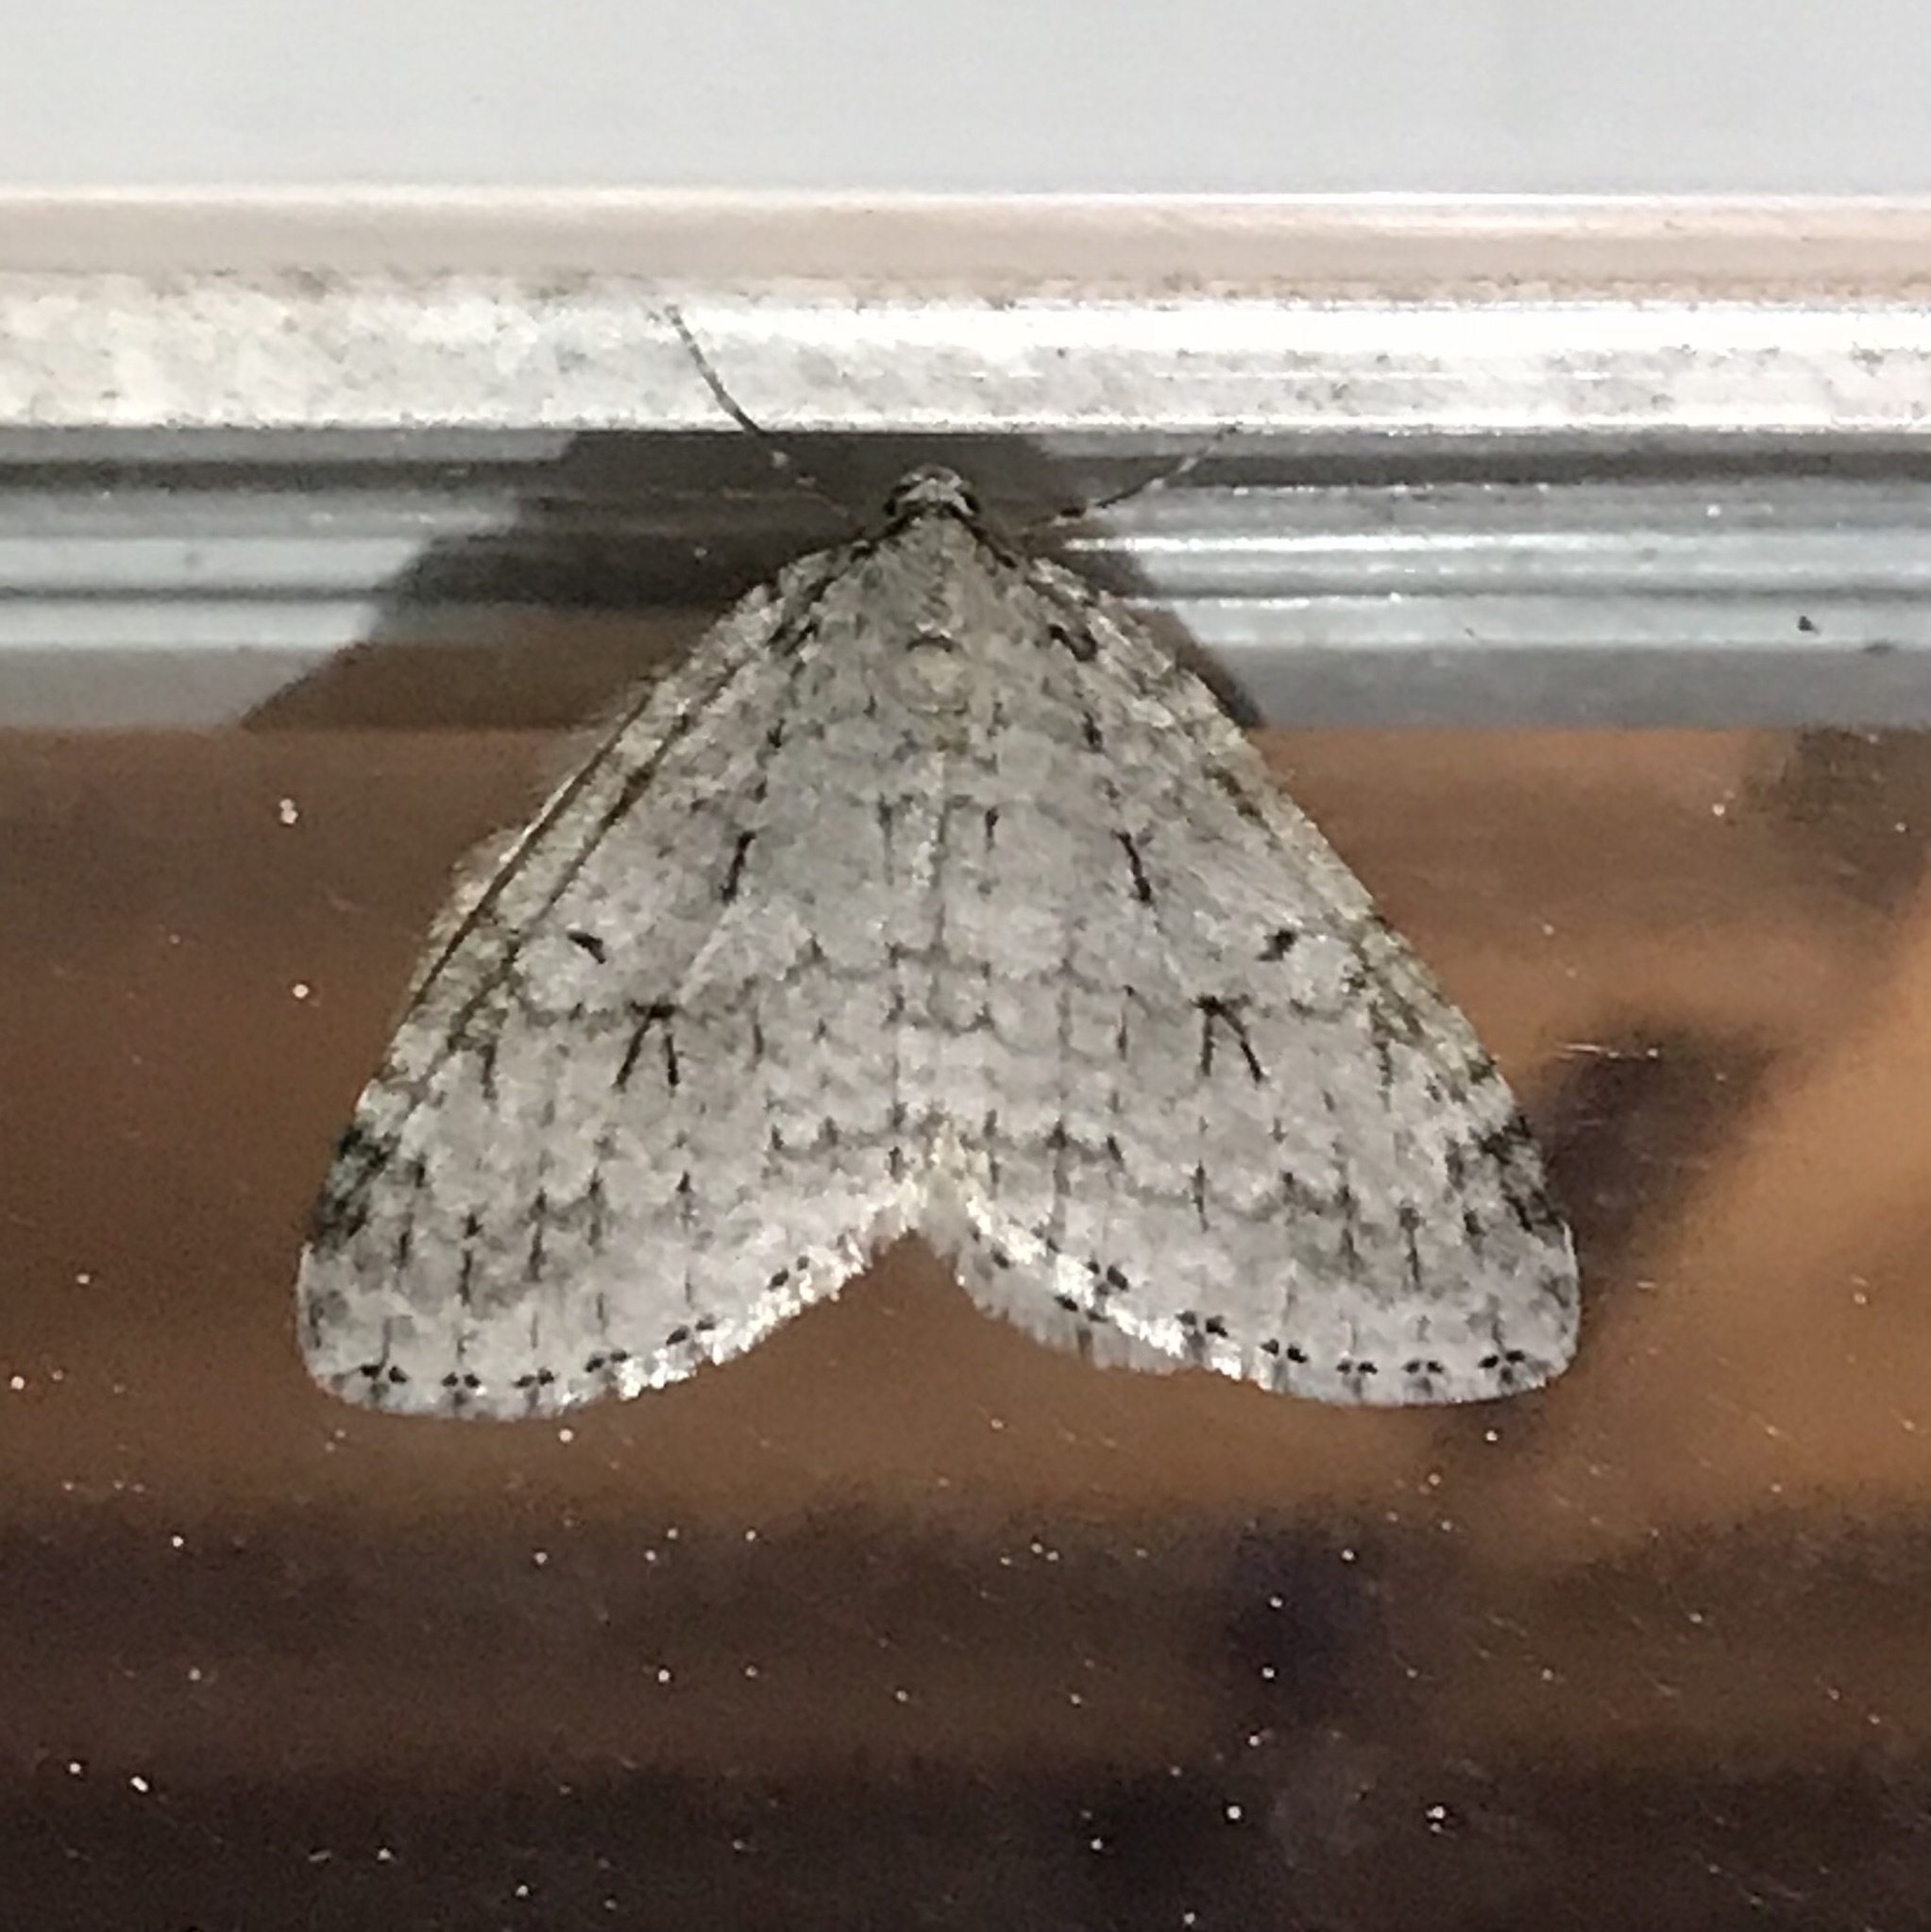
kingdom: Animalia
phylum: Arthropoda
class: Insecta
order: Lepidoptera
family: Geometridae
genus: Epirrita
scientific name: Epirrita autumnata
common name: Autumnal moth
